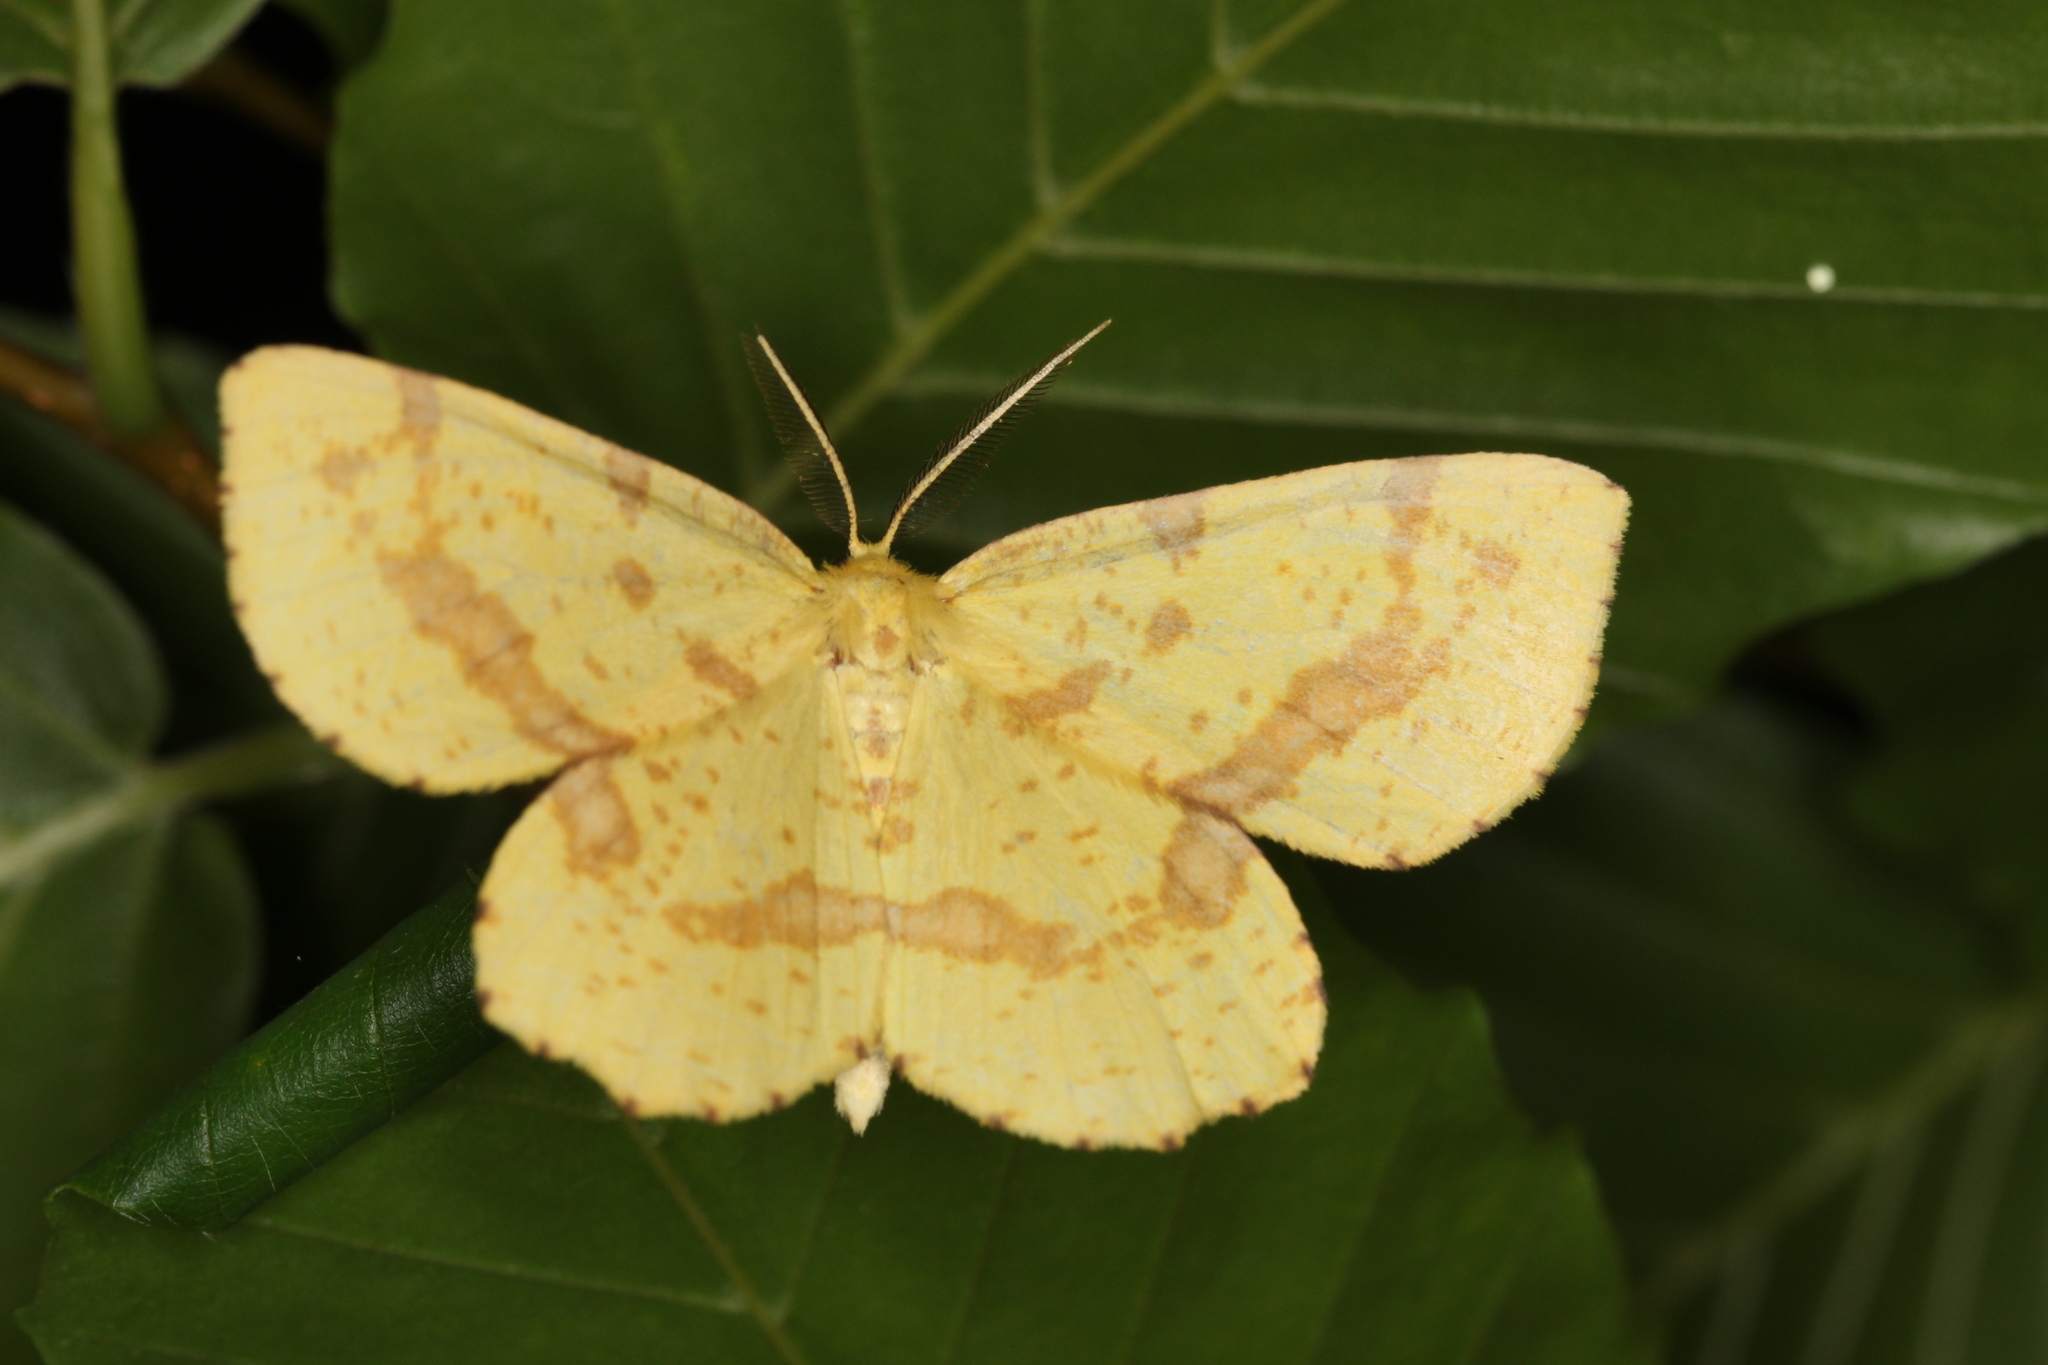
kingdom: Animalia
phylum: Arthropoda
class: Insecta
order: Lepidoptera
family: Geometridae
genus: Xanthotype
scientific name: Xanthotype
